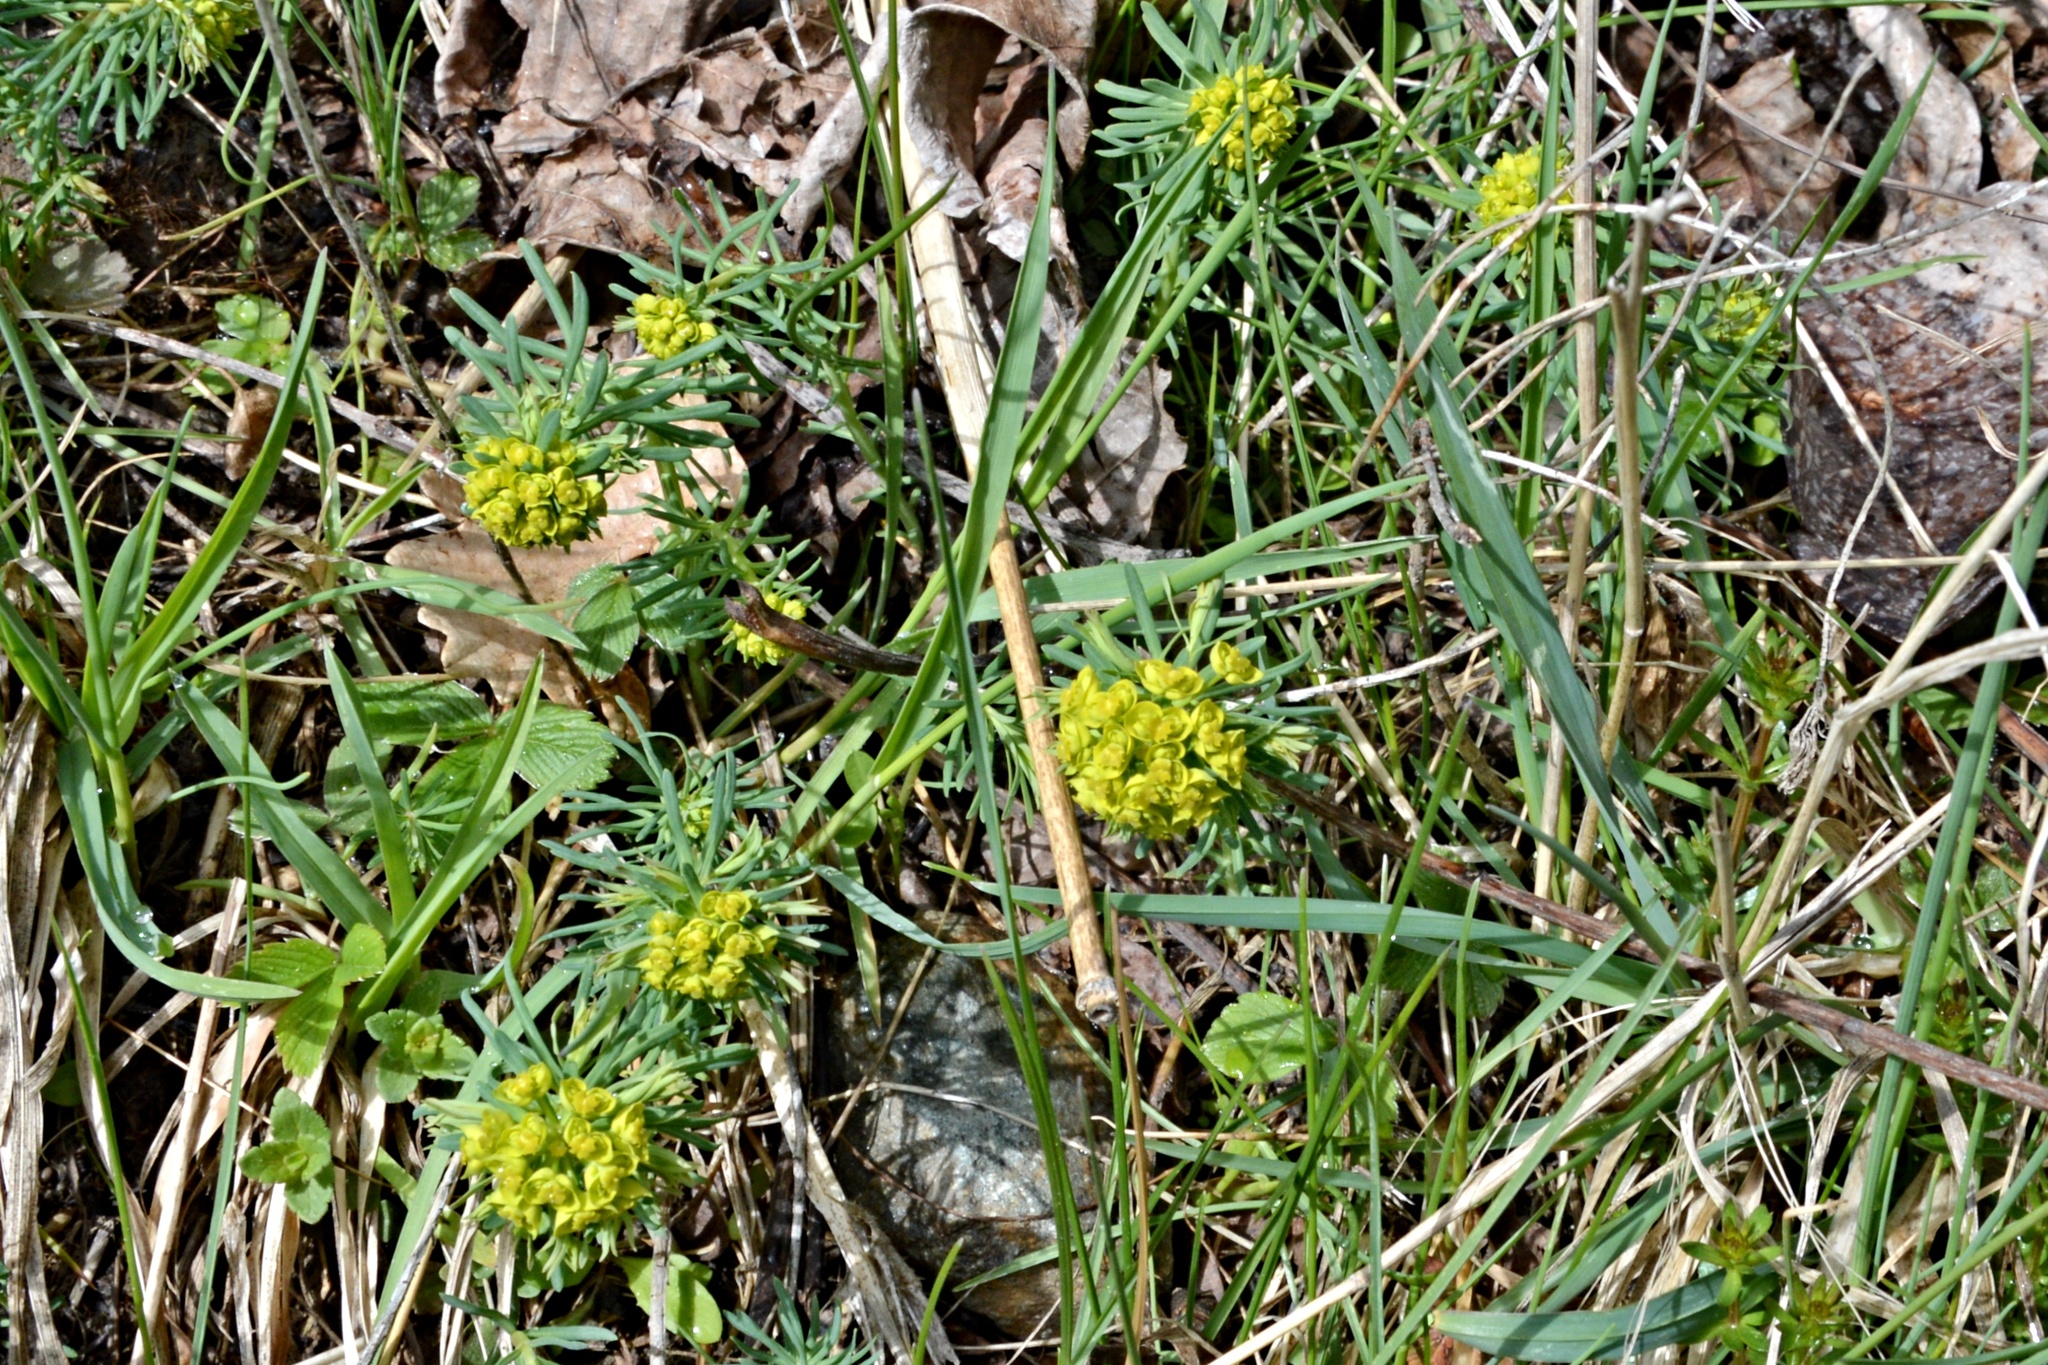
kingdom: Plantae
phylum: Tracheophyta
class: Magnoliopsida
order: Malpighiales
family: Euphorbiaceae
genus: Euphorbia
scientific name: Euphorbia cyparissias
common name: Cypress spurge
